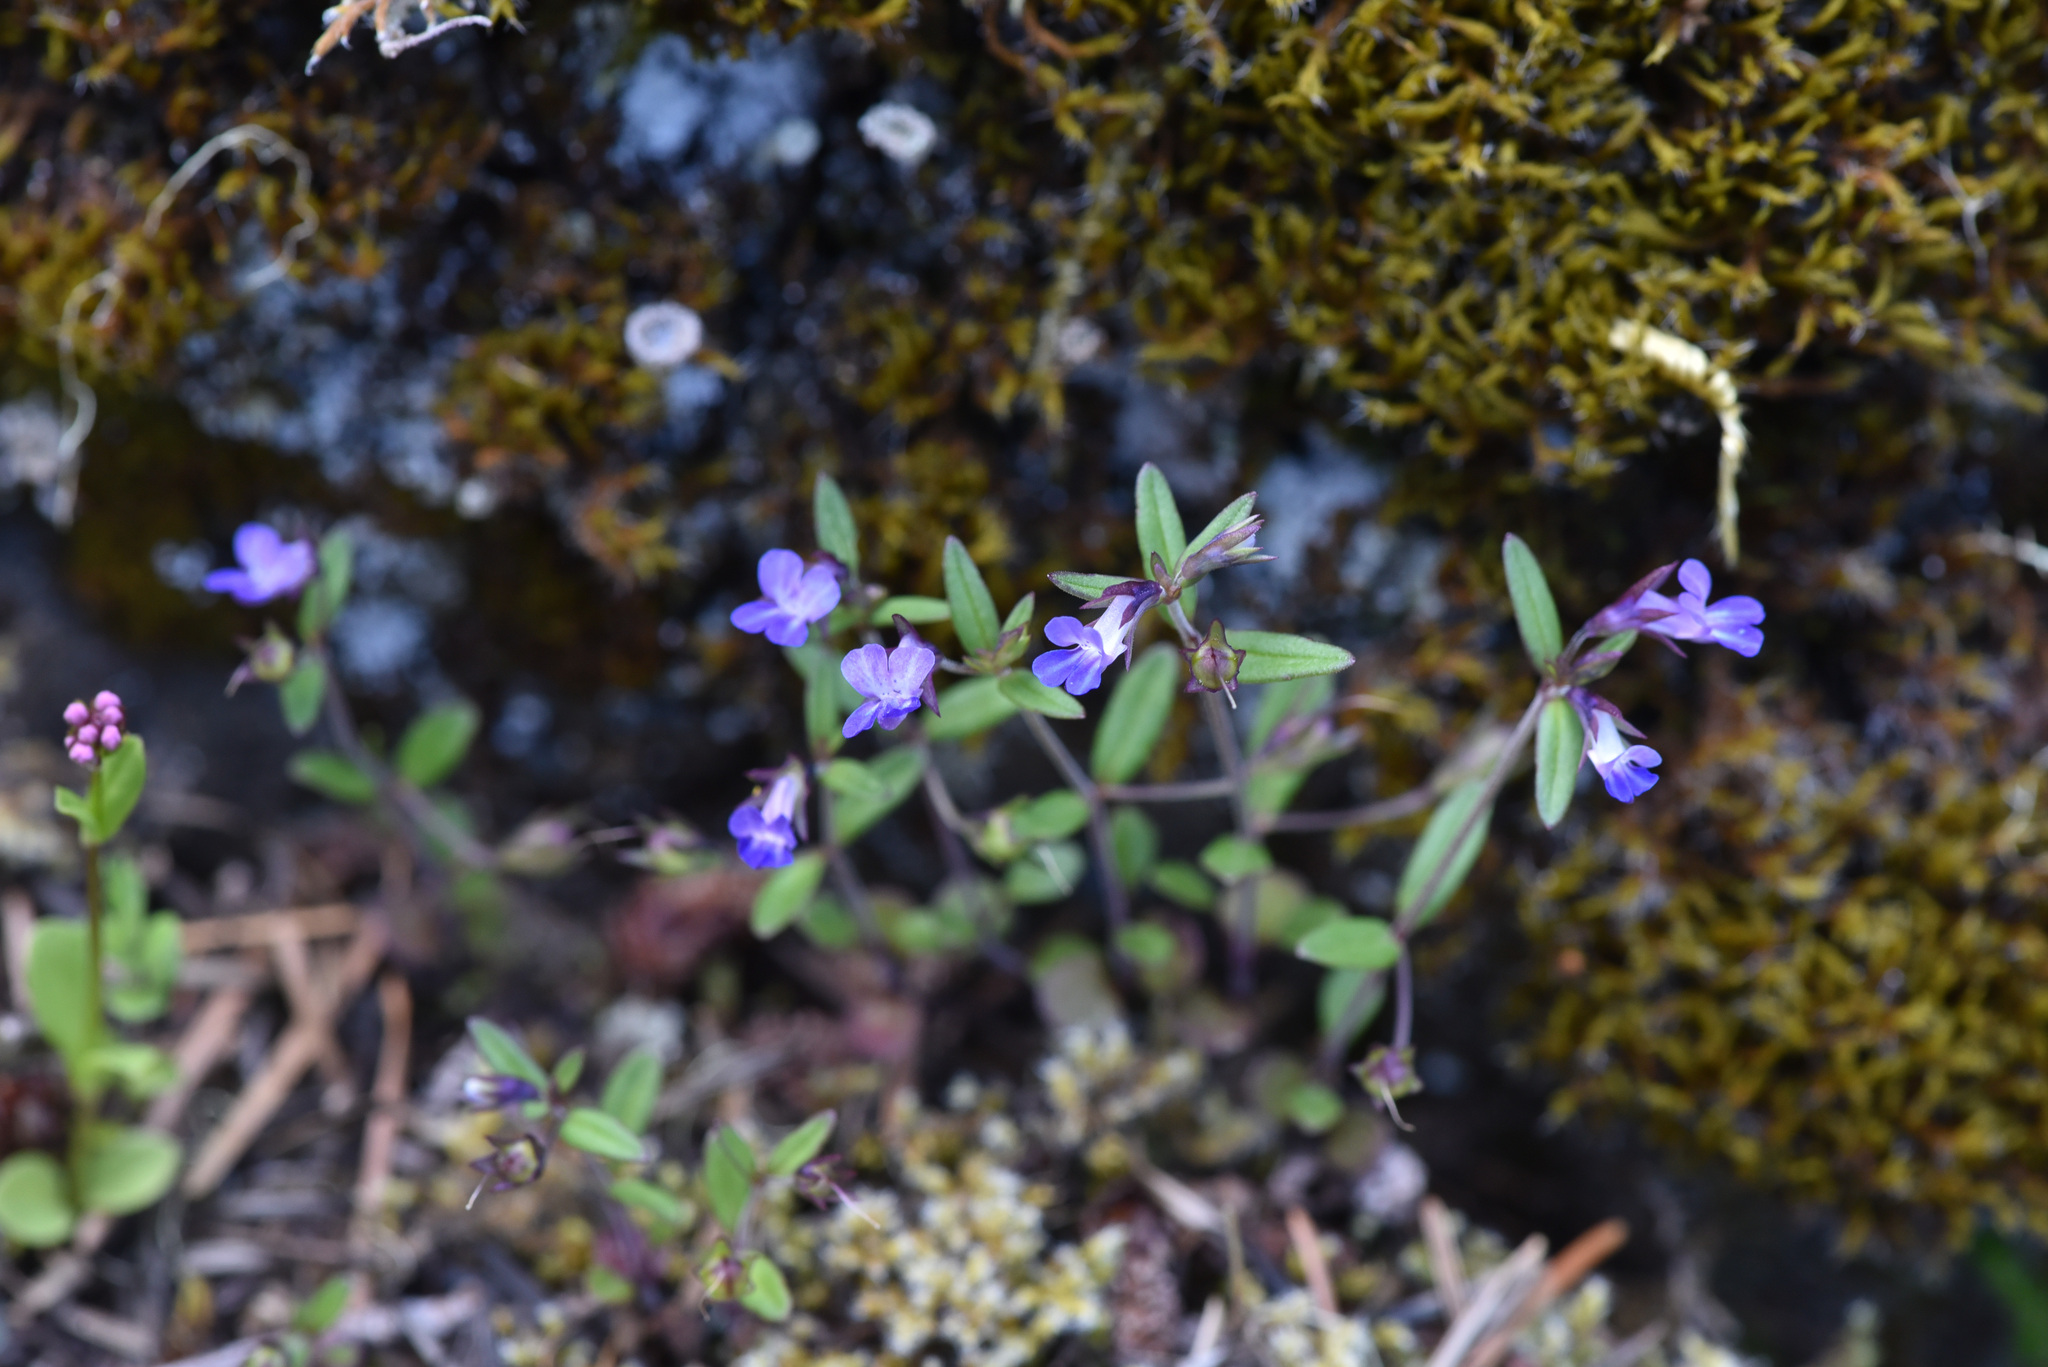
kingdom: Plantae
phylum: Tracheophyta
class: Magnoliopsida
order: Lamiales
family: Plantaginaceae
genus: Collinsia
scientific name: Collinsia parviflora
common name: Blue-lips
